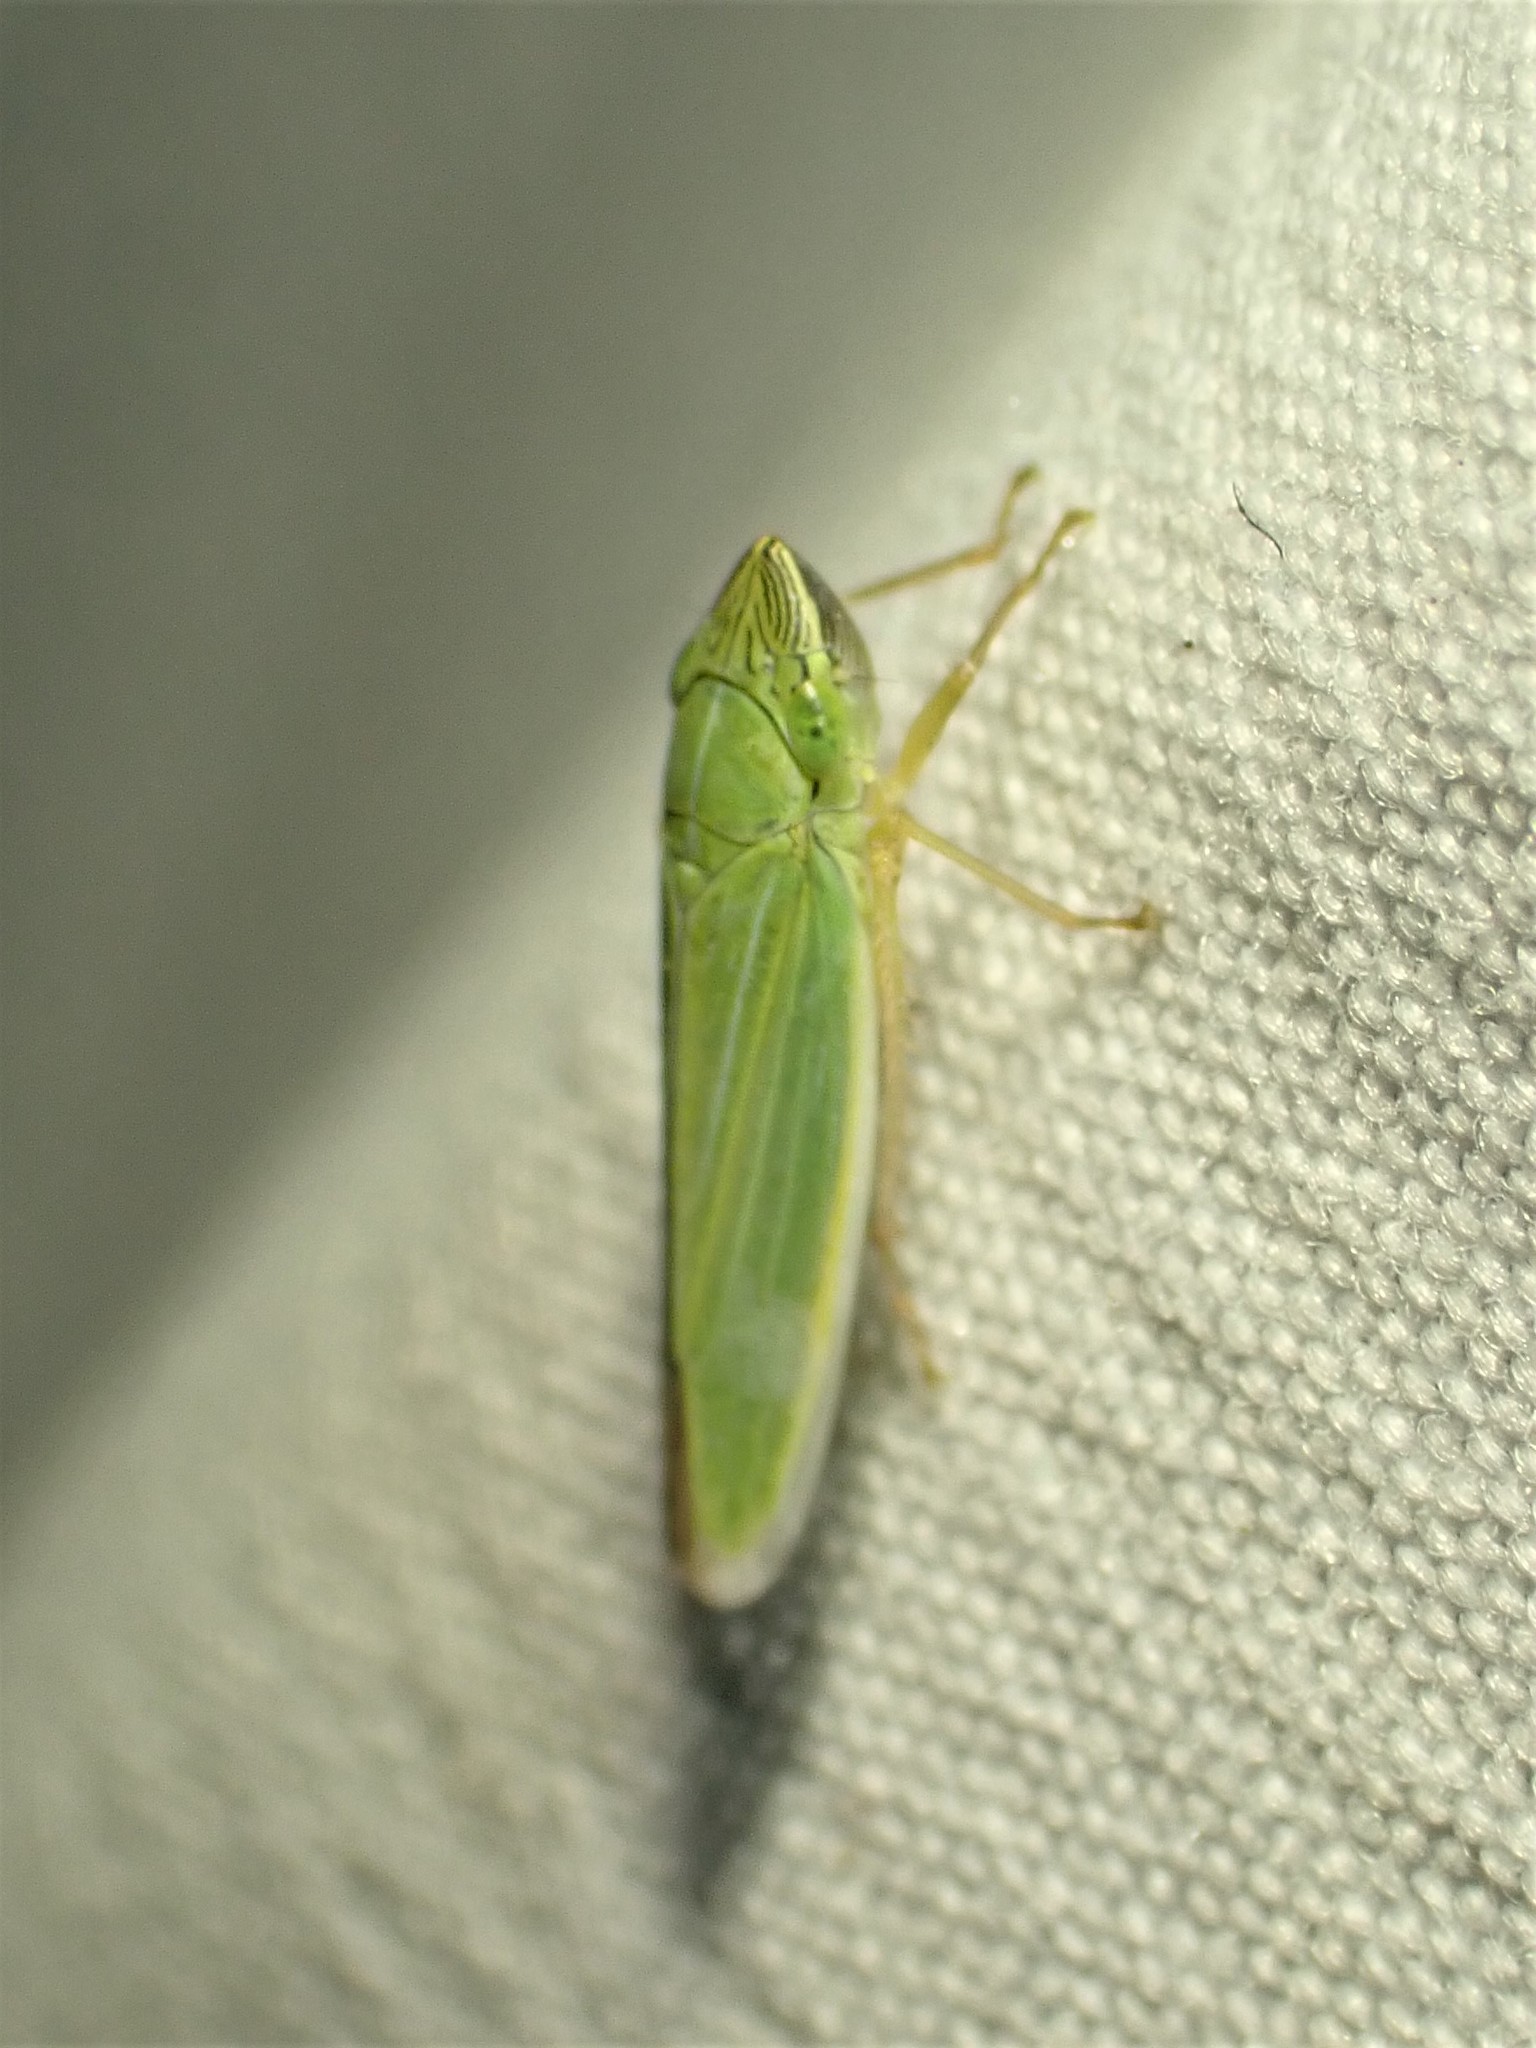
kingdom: Animalia
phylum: Arthropoda
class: Insecta
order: Hemiptera
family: Cicadellidae
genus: Draeculacephala
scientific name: Draeculacephala angulifera
